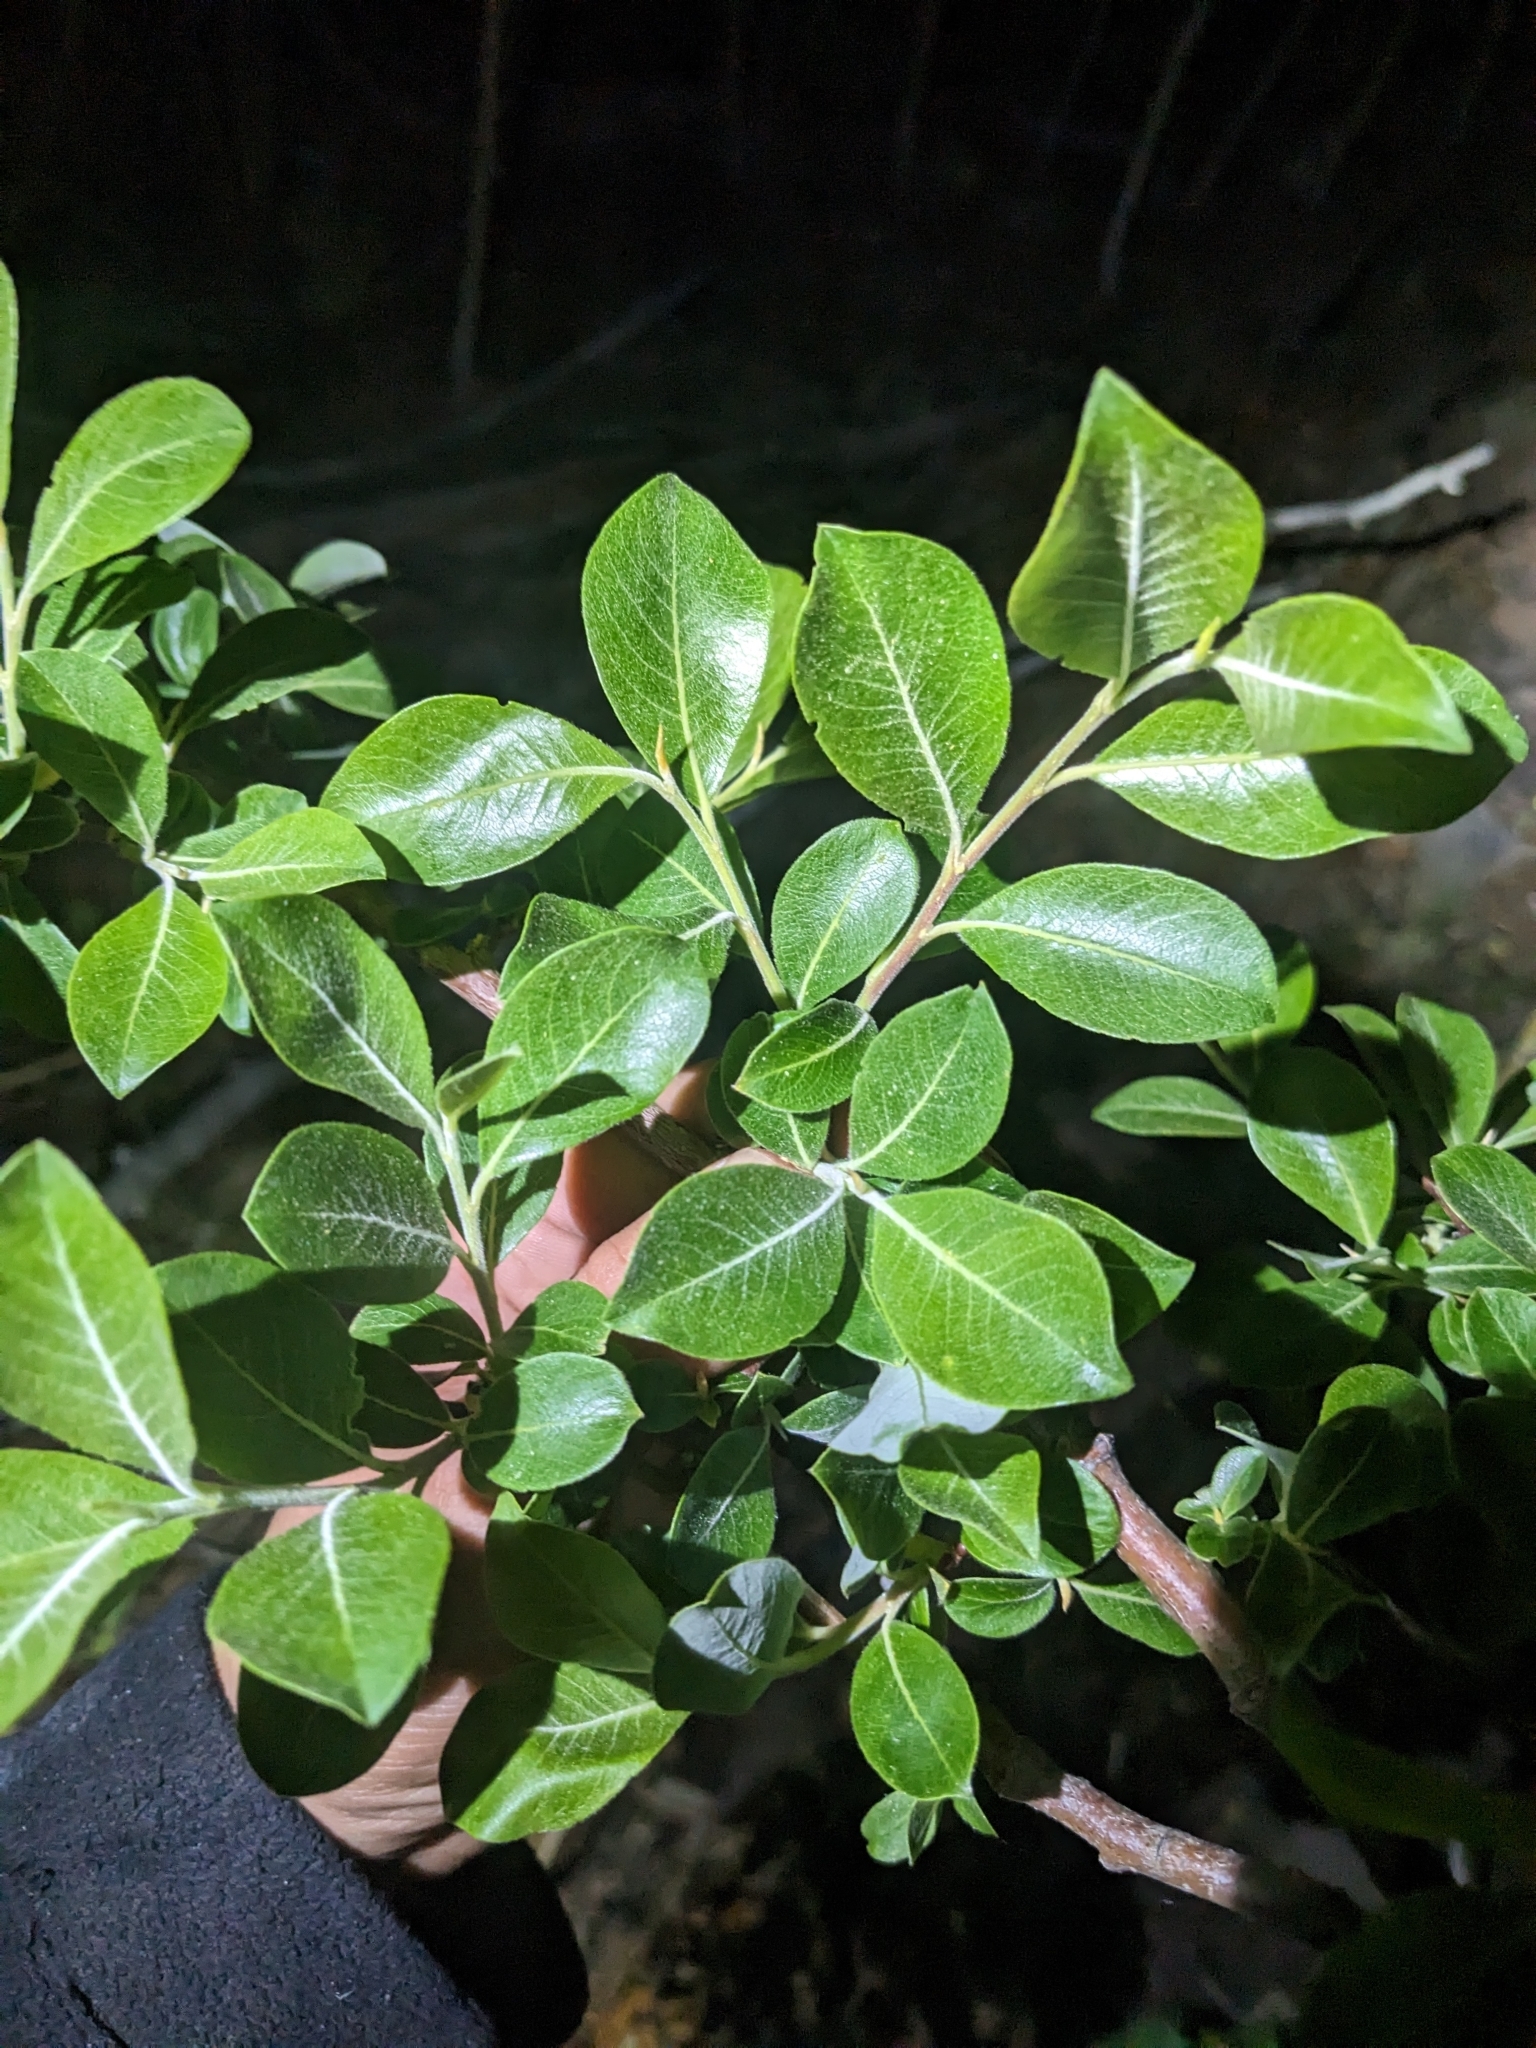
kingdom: Plantae
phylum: Tracheophyta
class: Magnoliopsida
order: Malpighiales
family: Salicaceae
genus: Salix
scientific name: Salix scouleriana
